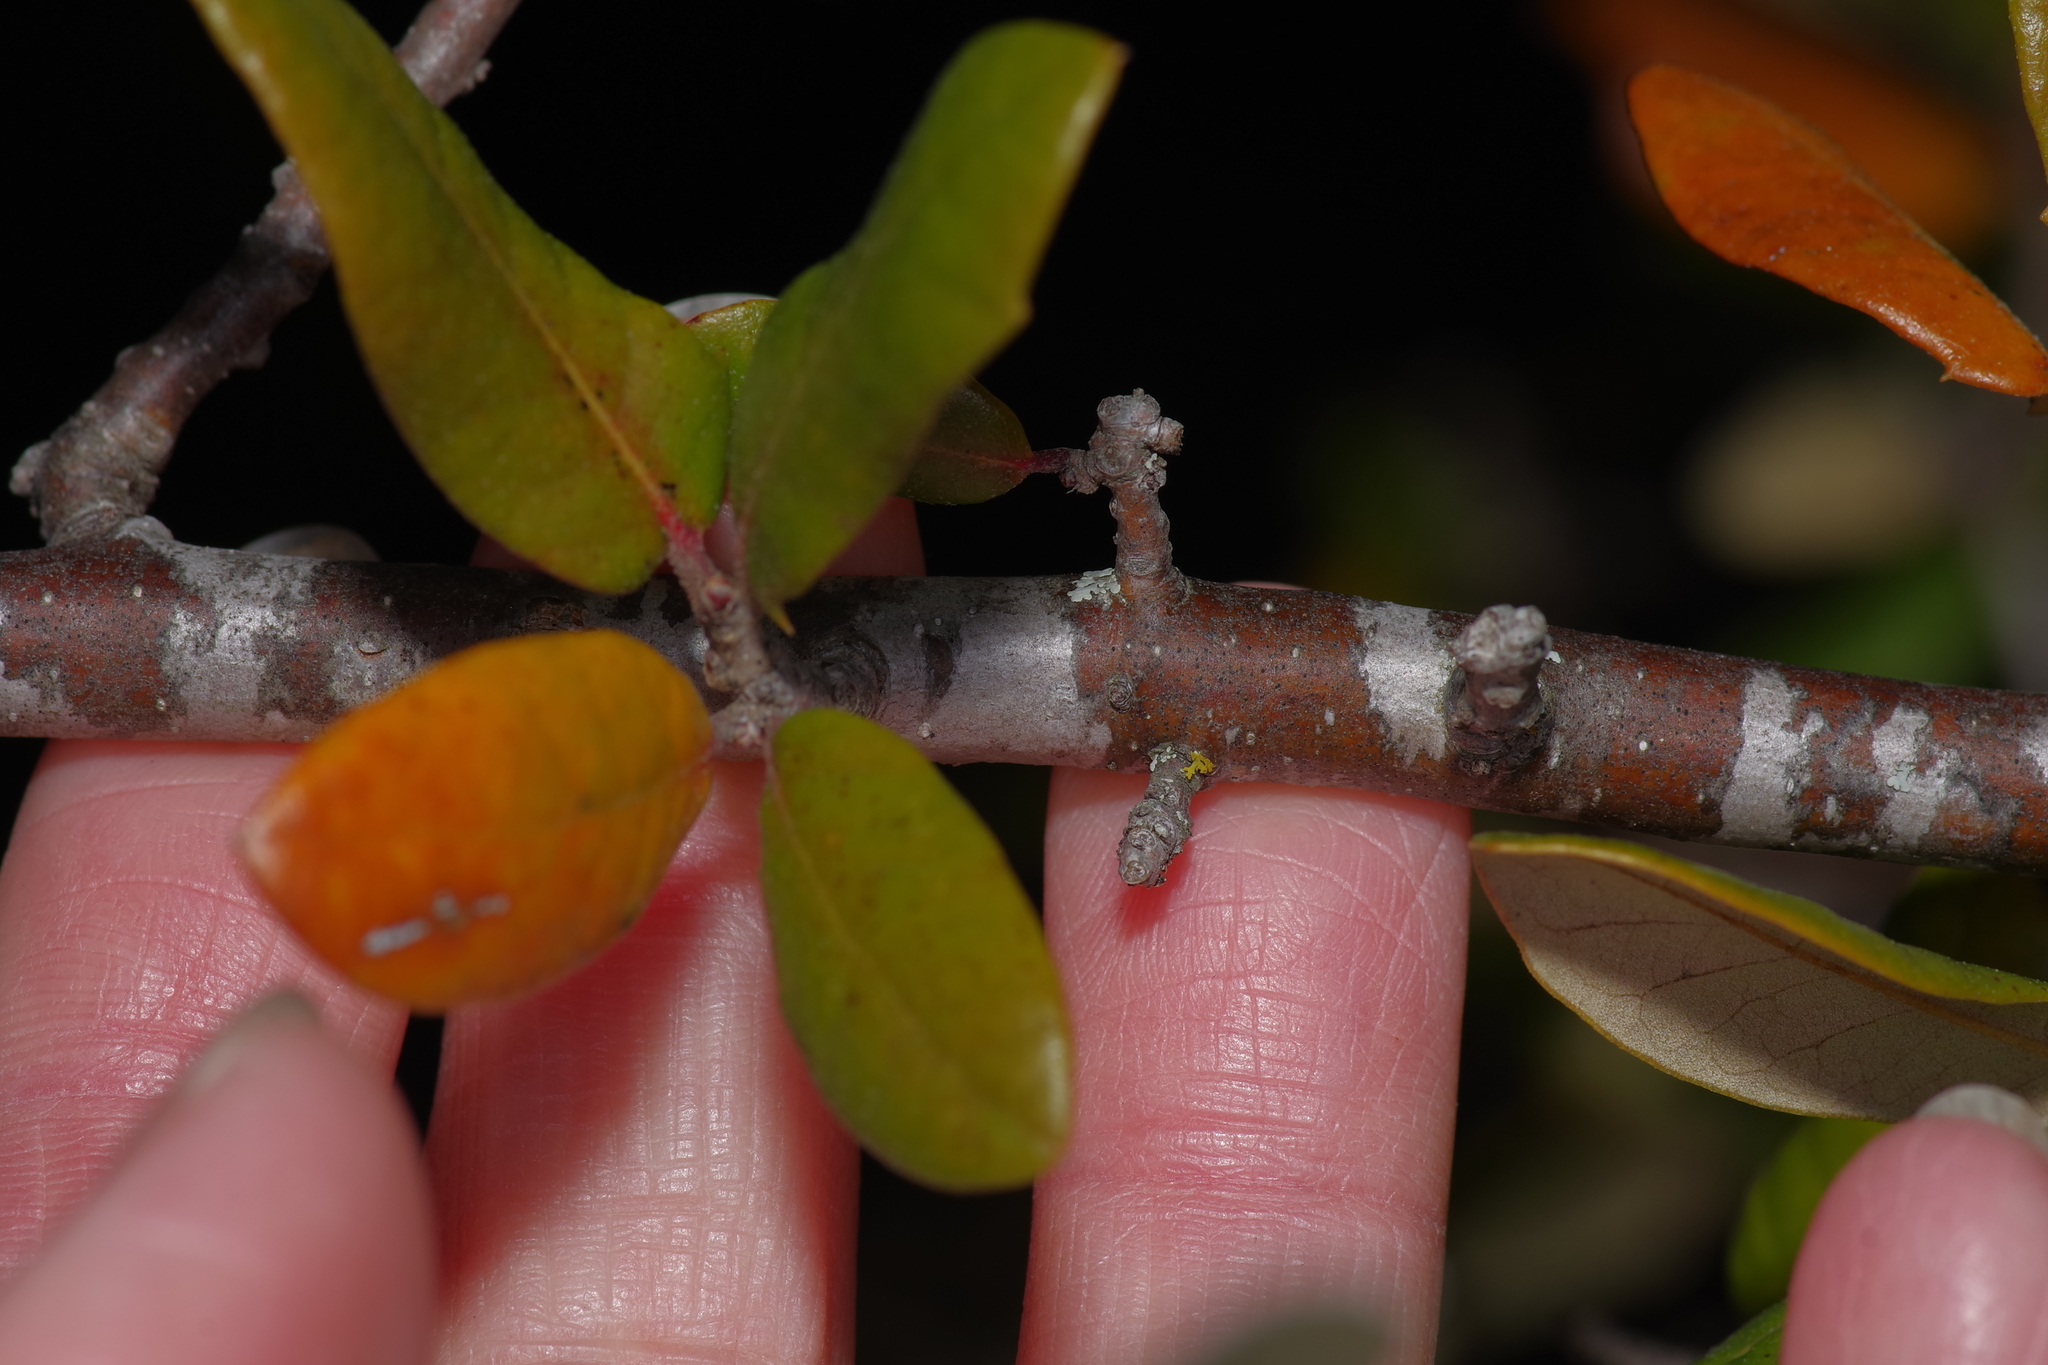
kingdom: Plantae
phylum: Tracheophyta
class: Magnoliopsida
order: Fagales
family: Fagaceae
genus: Quercus
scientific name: Quercus fusiformis
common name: Texas live oak
